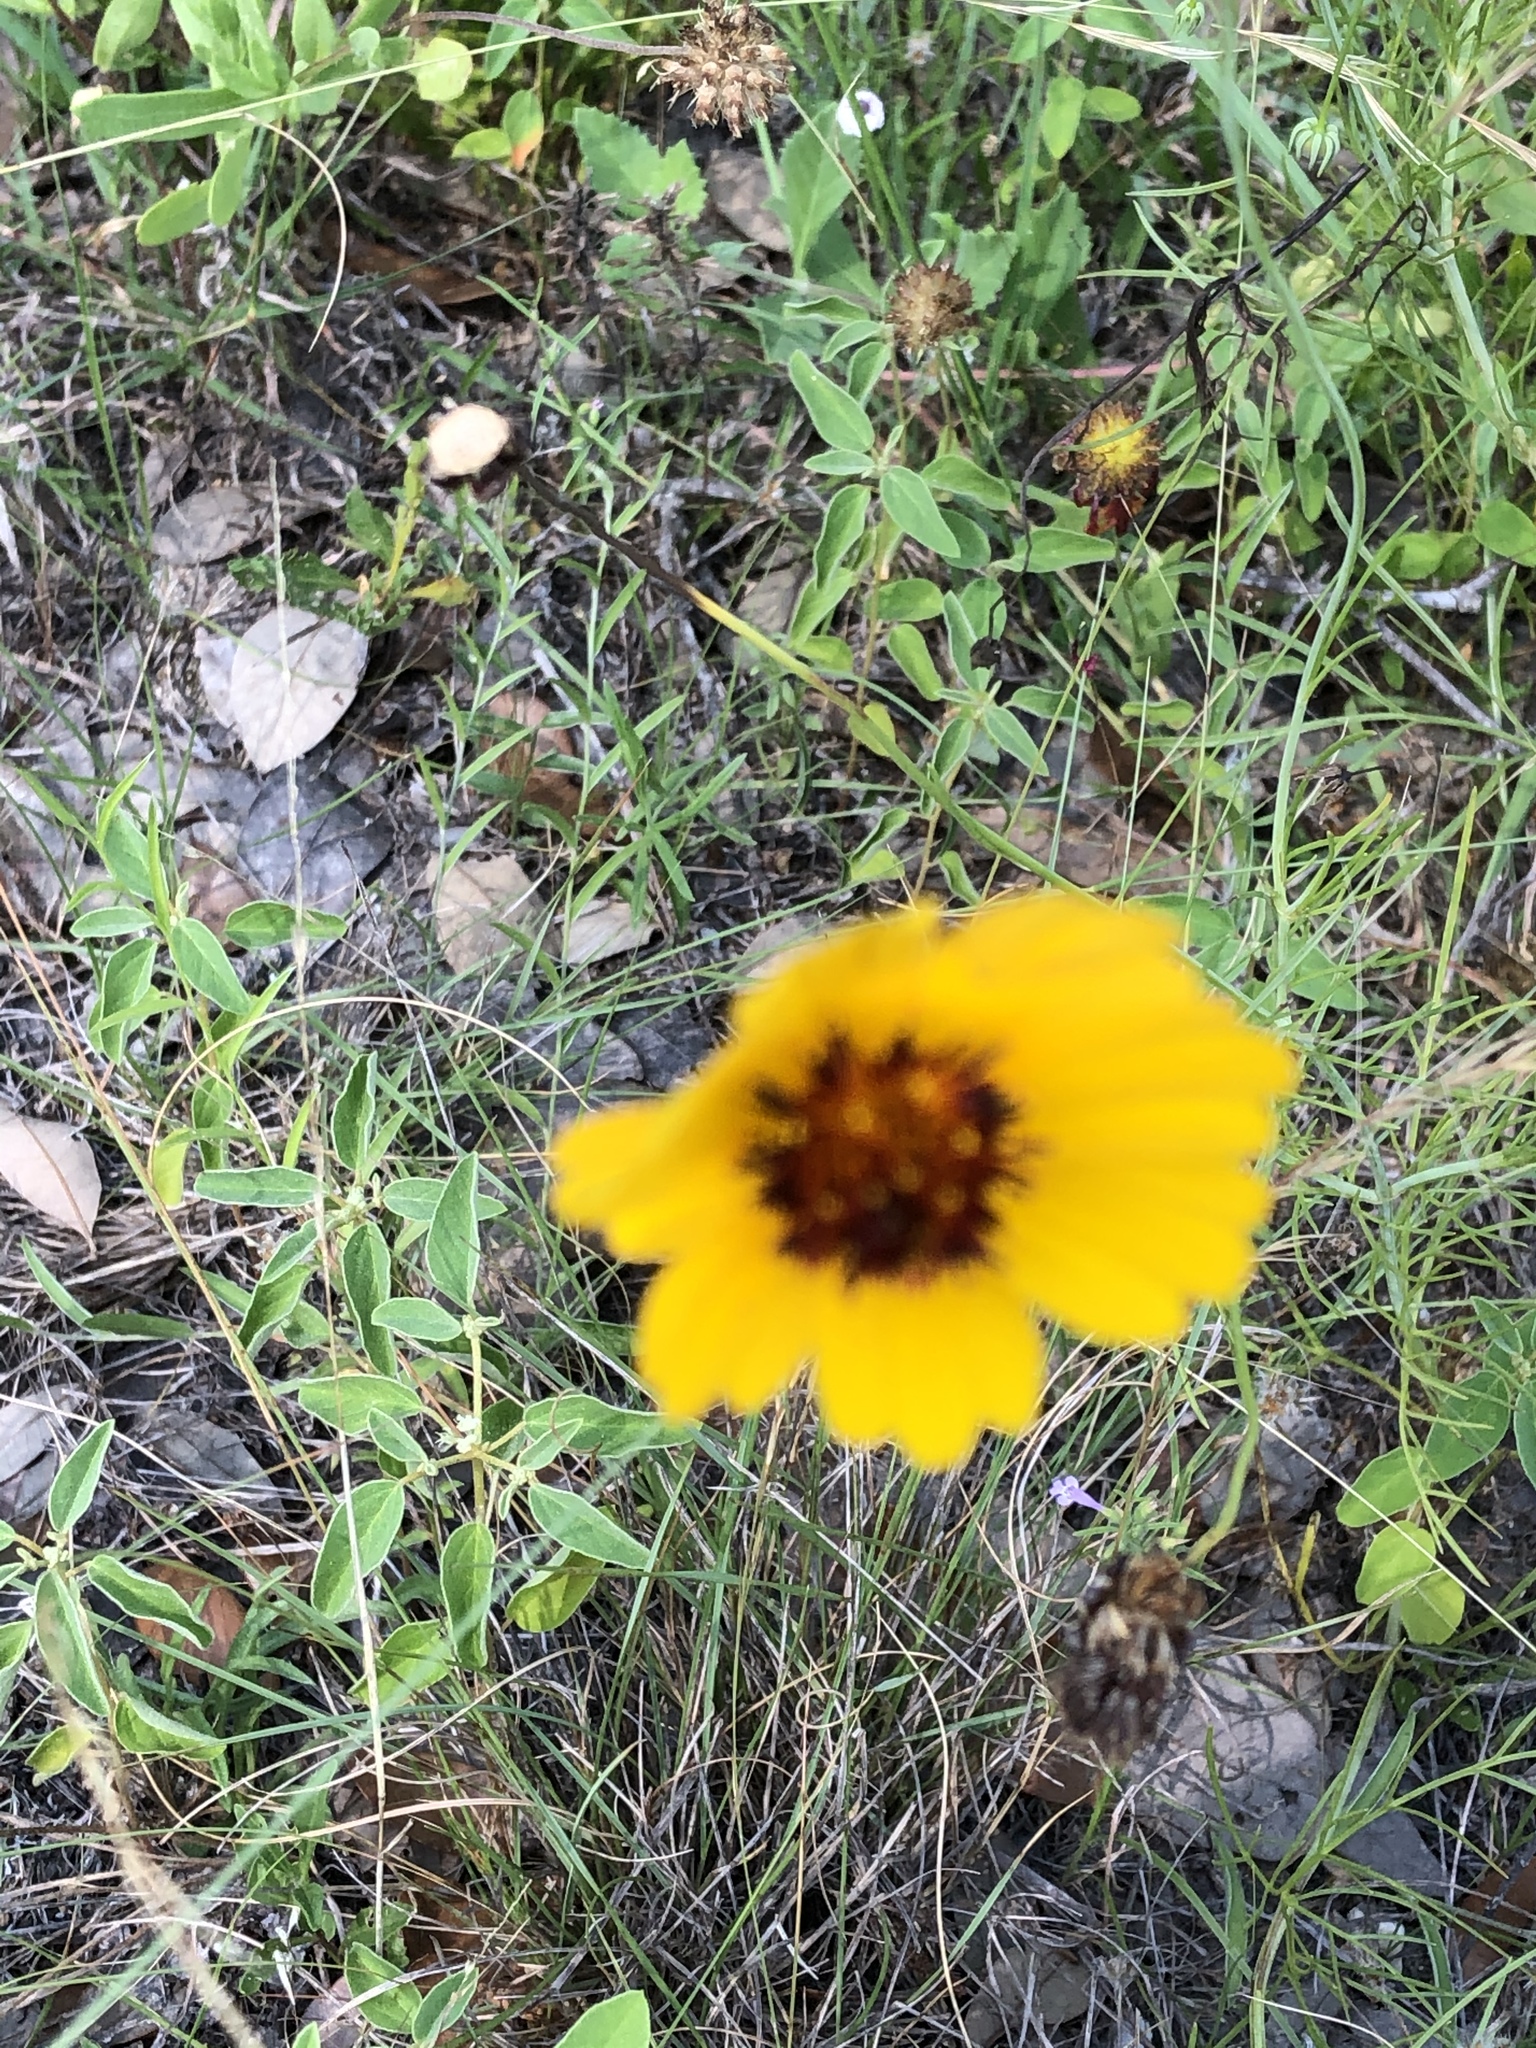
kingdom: Plantae
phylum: Tracheophyta
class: Magnoliopsida
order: Asterales
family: Asteraceae
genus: Thelesperma
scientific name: Thelesperma filifolium
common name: Stiff greenthread
